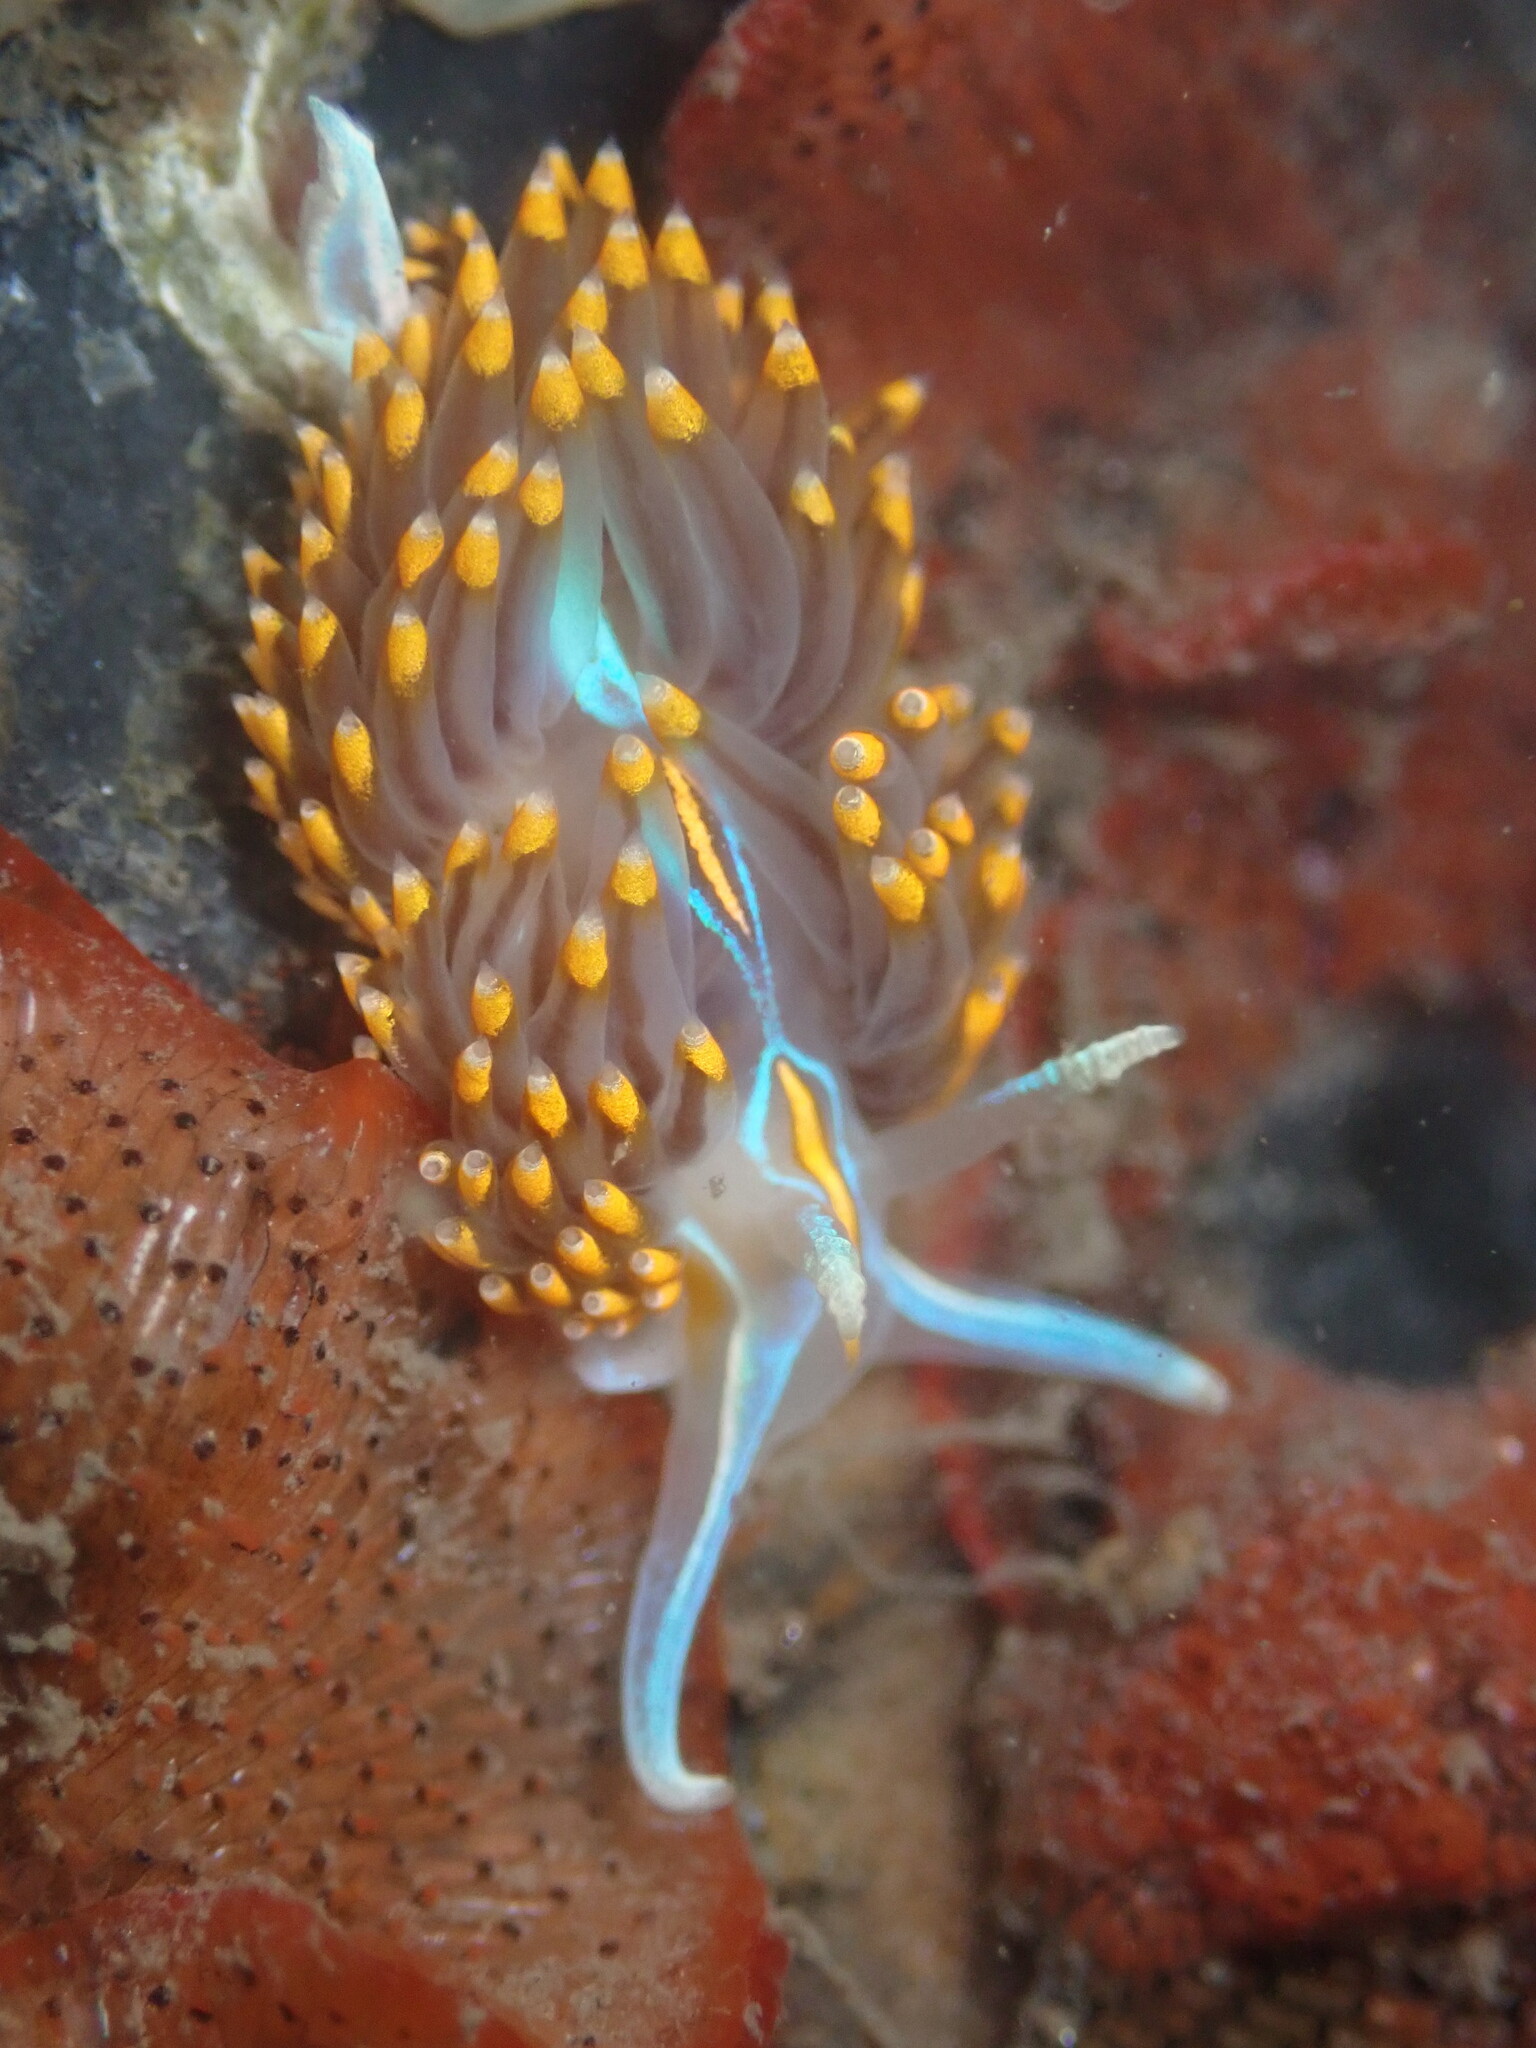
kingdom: Animalia
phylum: Mollusca
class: Gastropoda
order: Nudibranchia
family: Myrrhinidae
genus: Hermissenda
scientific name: Hermissenda opalescens
